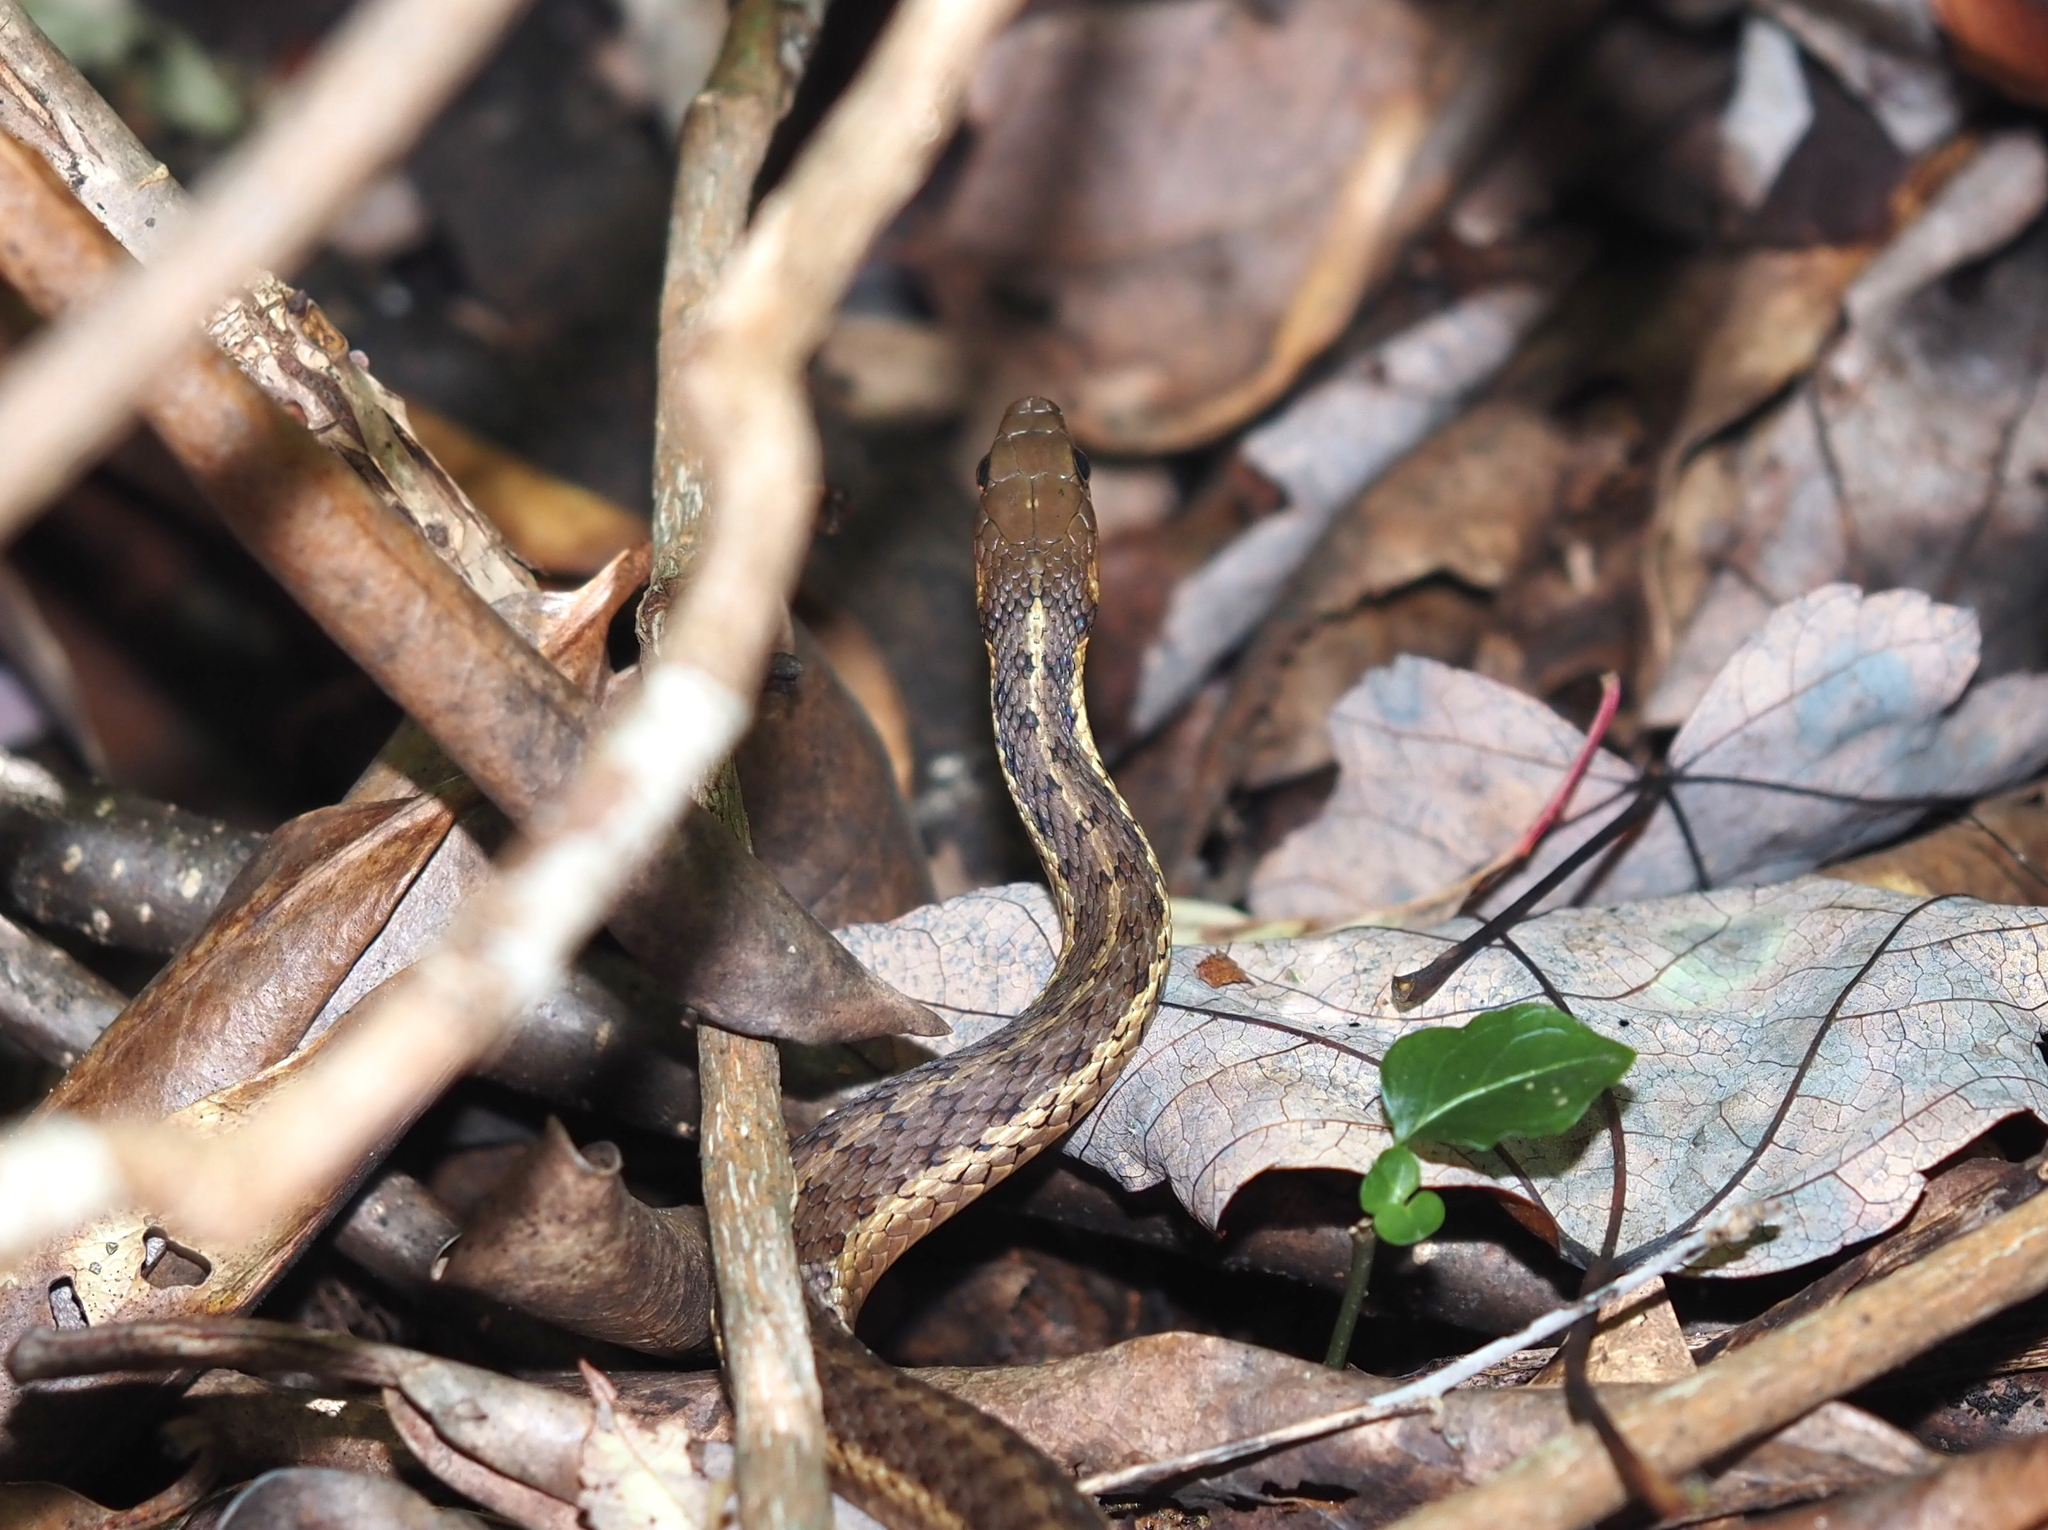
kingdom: Animalia
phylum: Chordata
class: Squamata
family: Colubridae
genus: Thamnophis
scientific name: Thamnophis sirtalis
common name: Common garter snake
